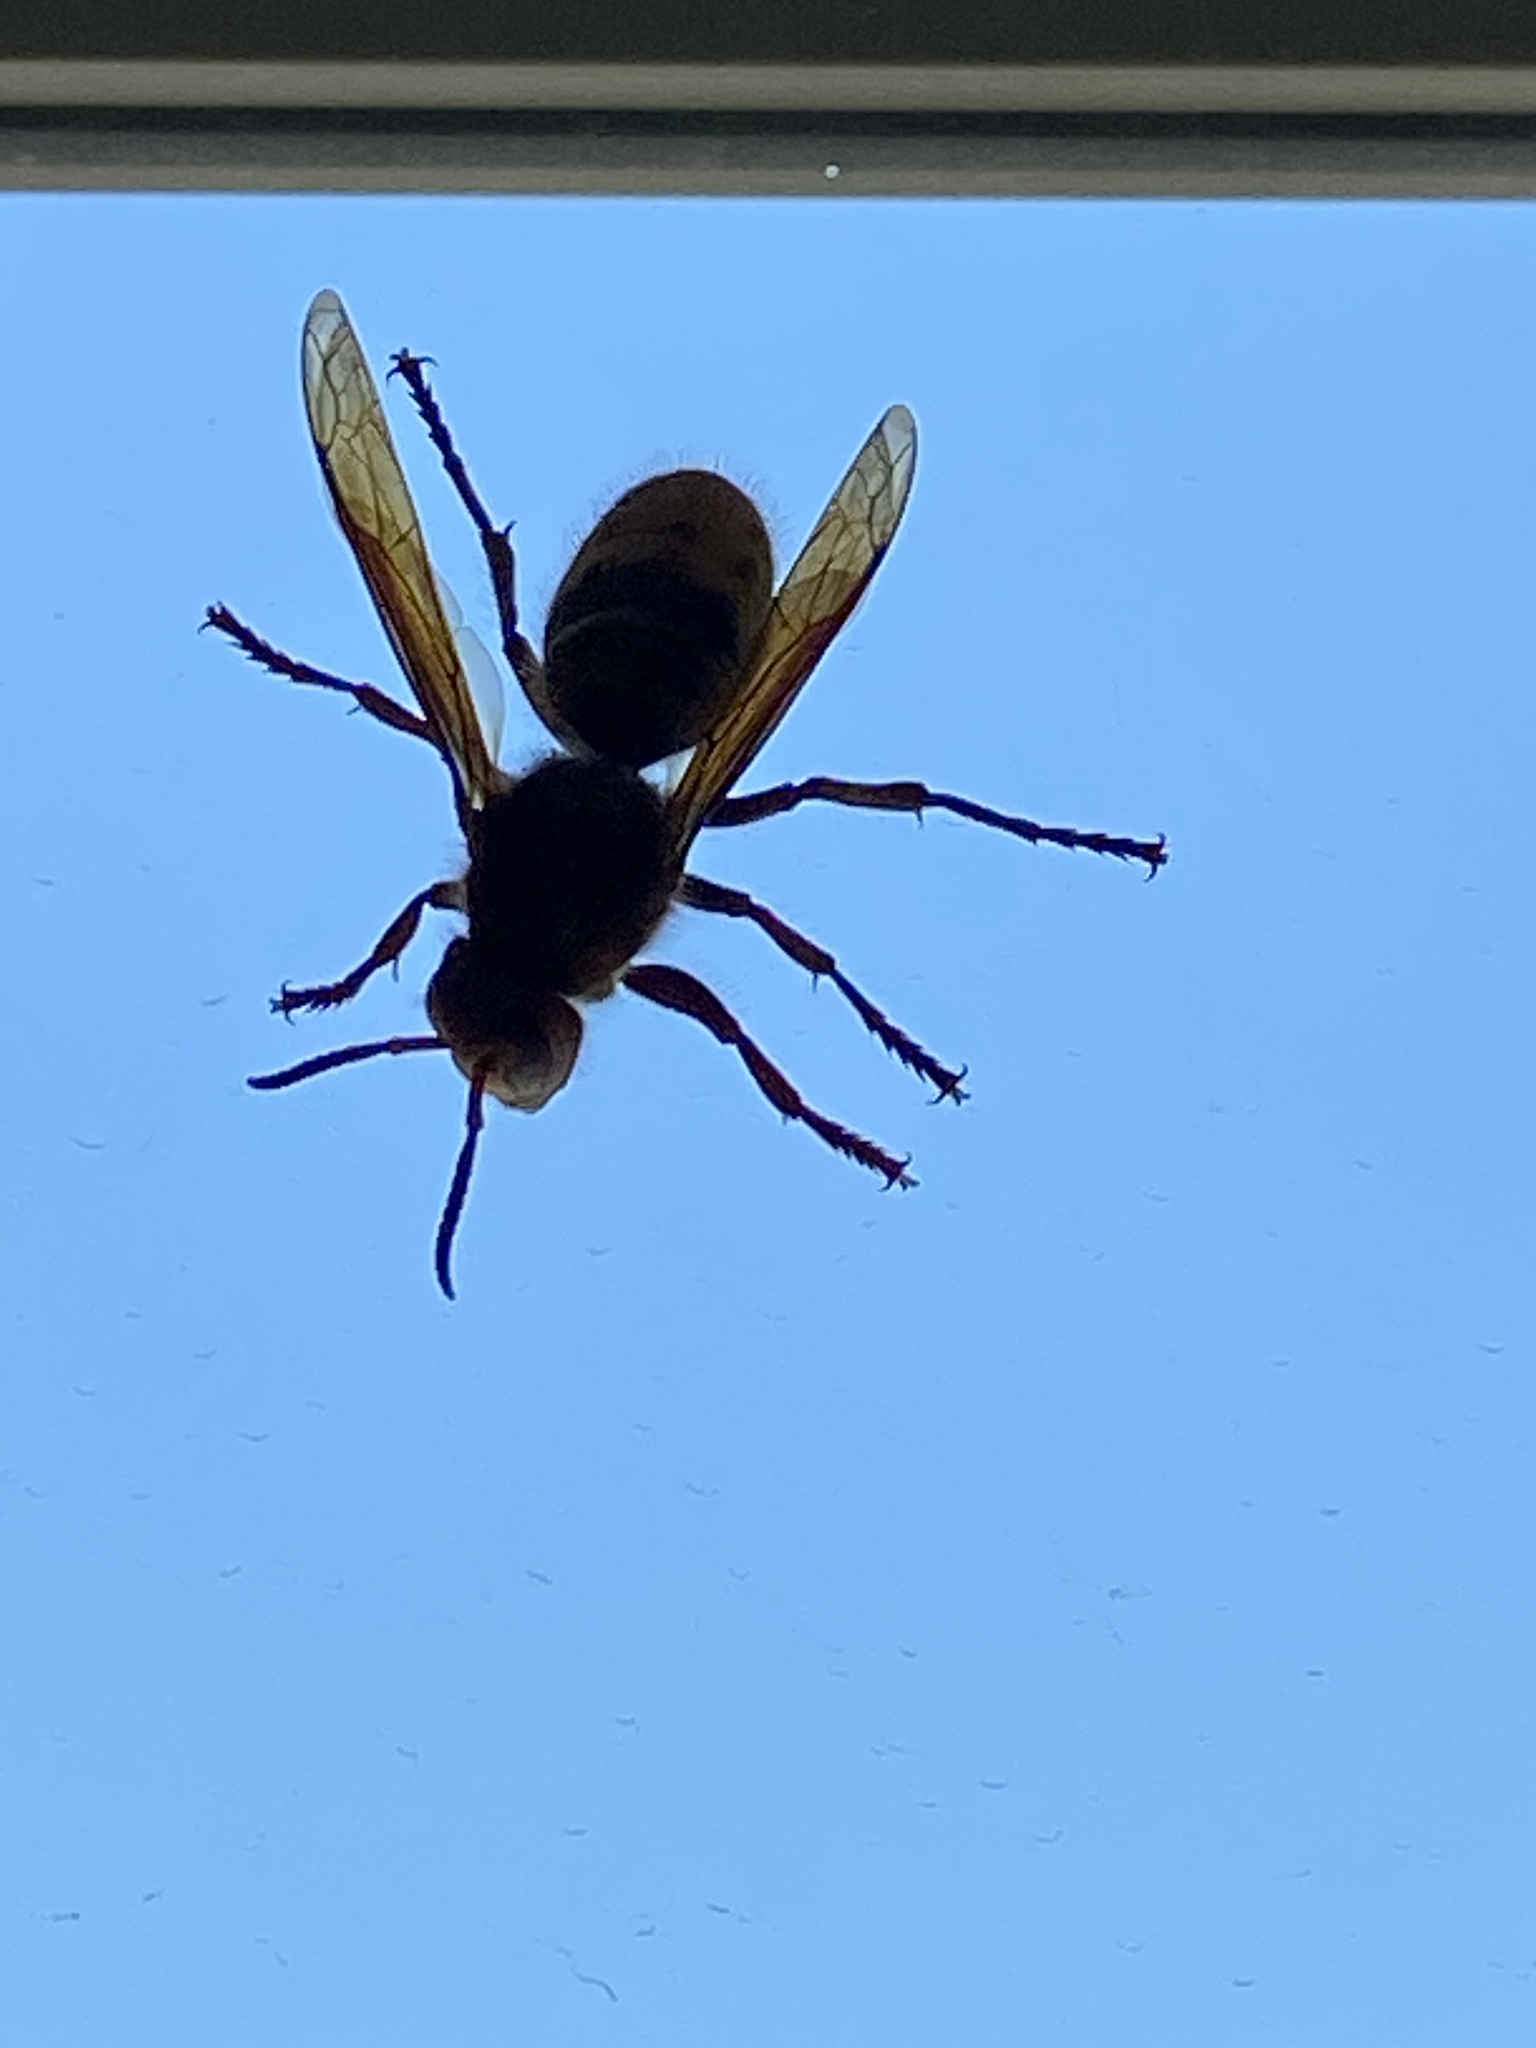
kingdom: Animalia
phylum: Arthropoda
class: Insecta
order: Hymenoptera
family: Vespidae
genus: Vespa
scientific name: Vespa crabro
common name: Hornet
